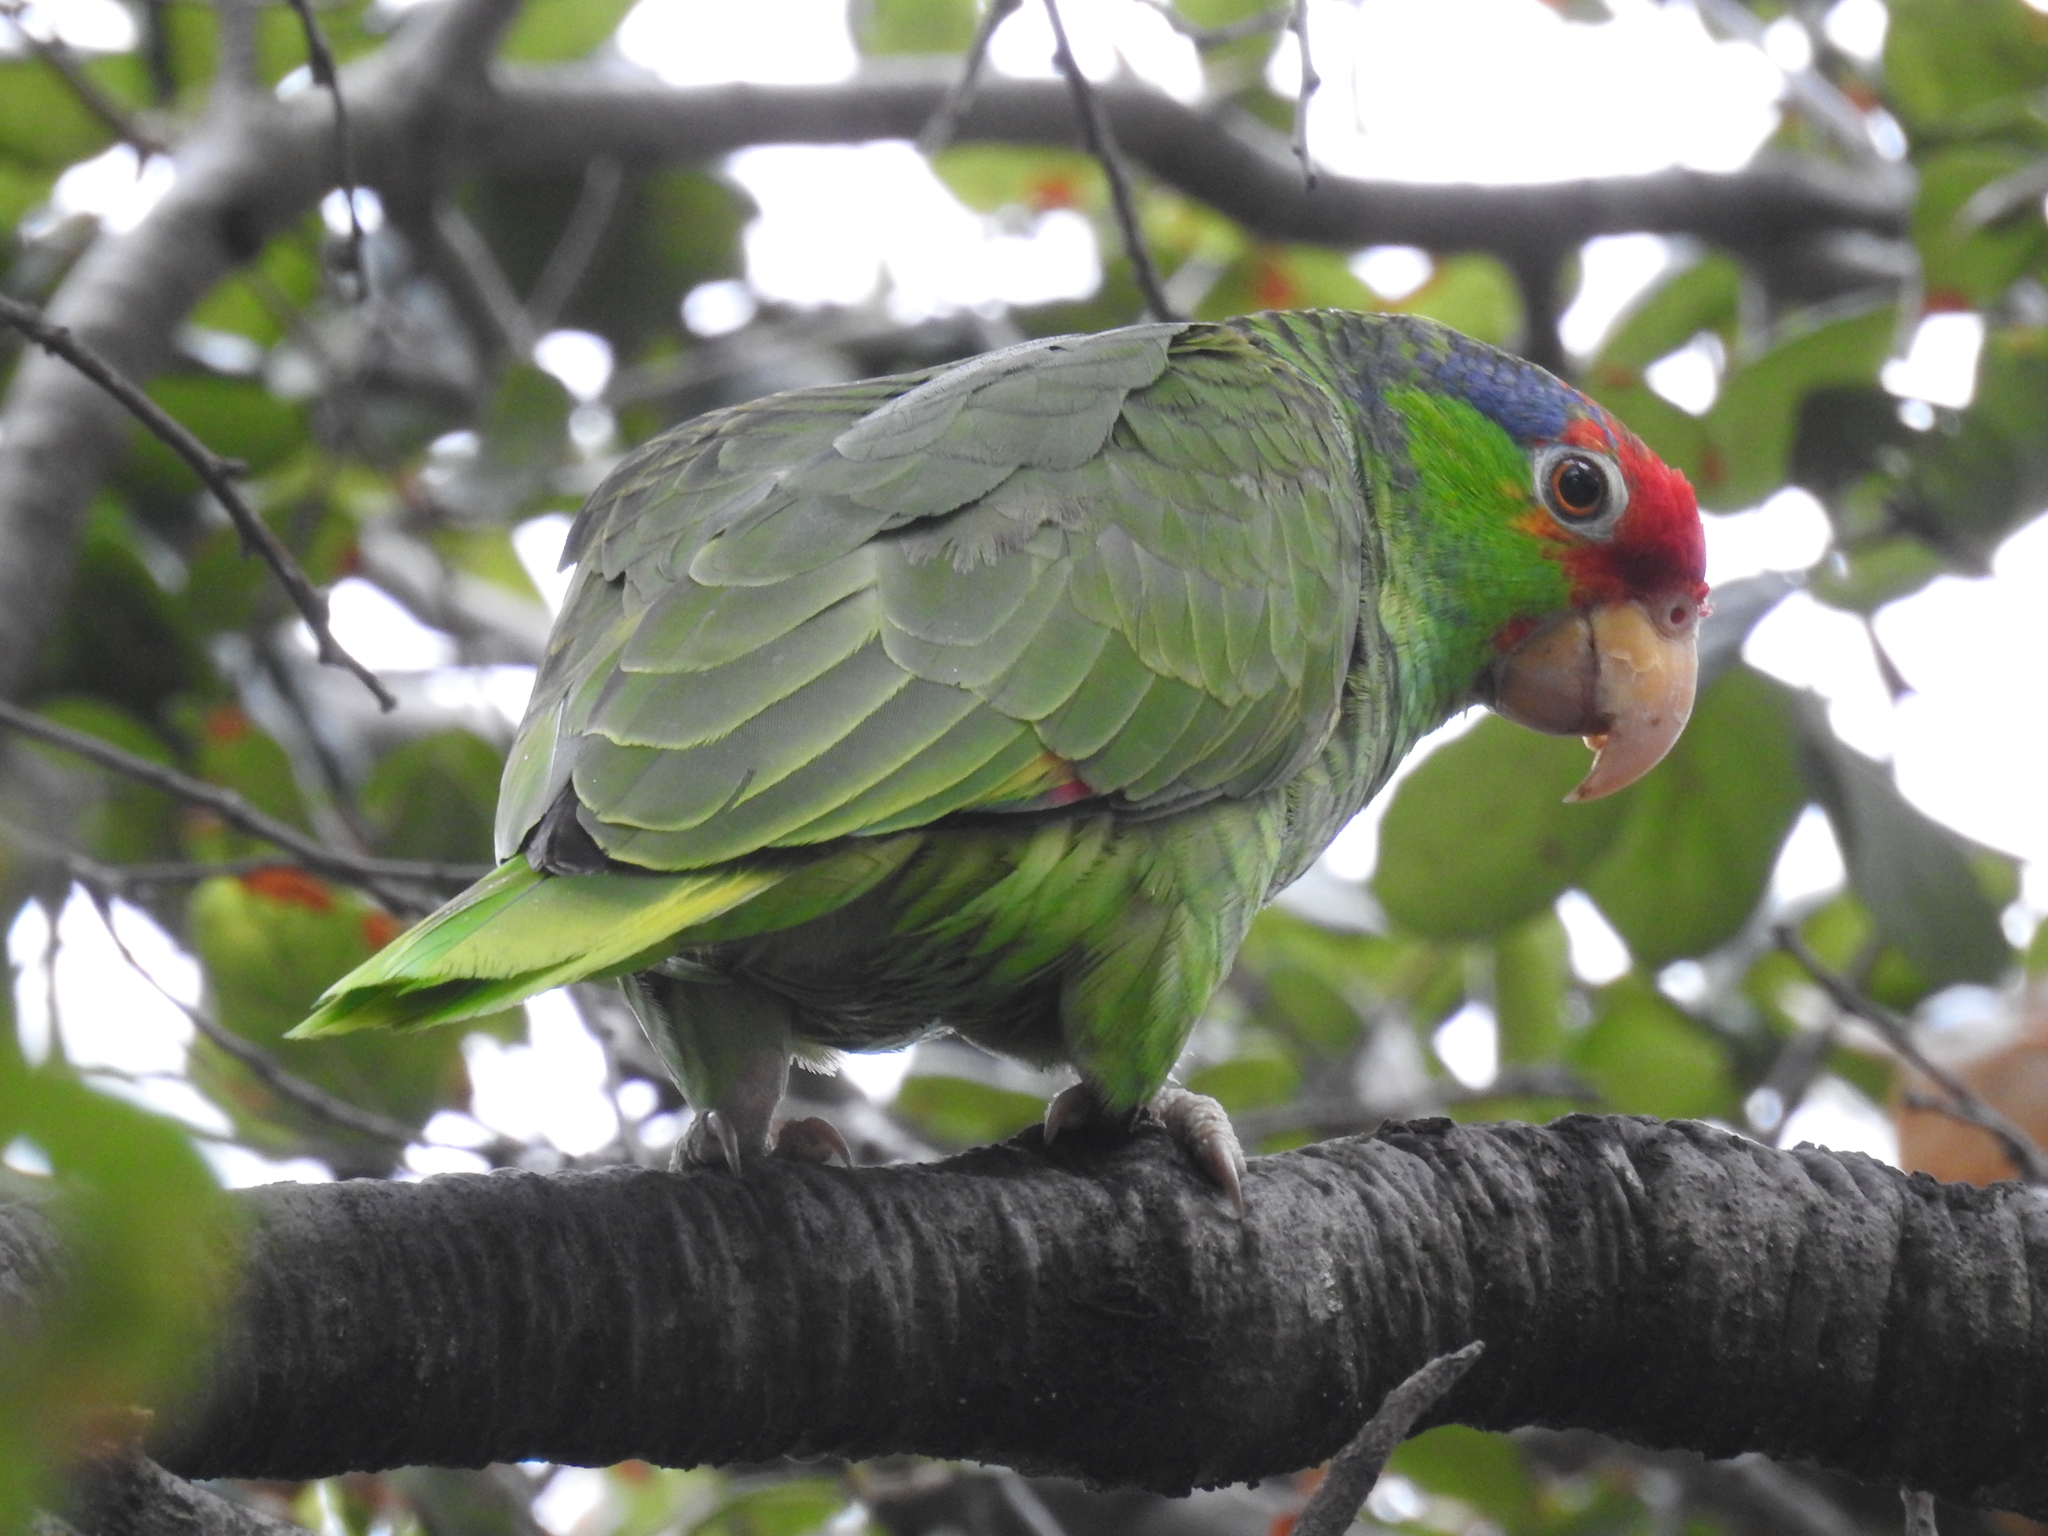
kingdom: Animalia
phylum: Chordata
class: Aves
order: Psittaciformes
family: Psittacidae
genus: Amazona
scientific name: Amazona viridigenalis
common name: Red-crowned amazon
